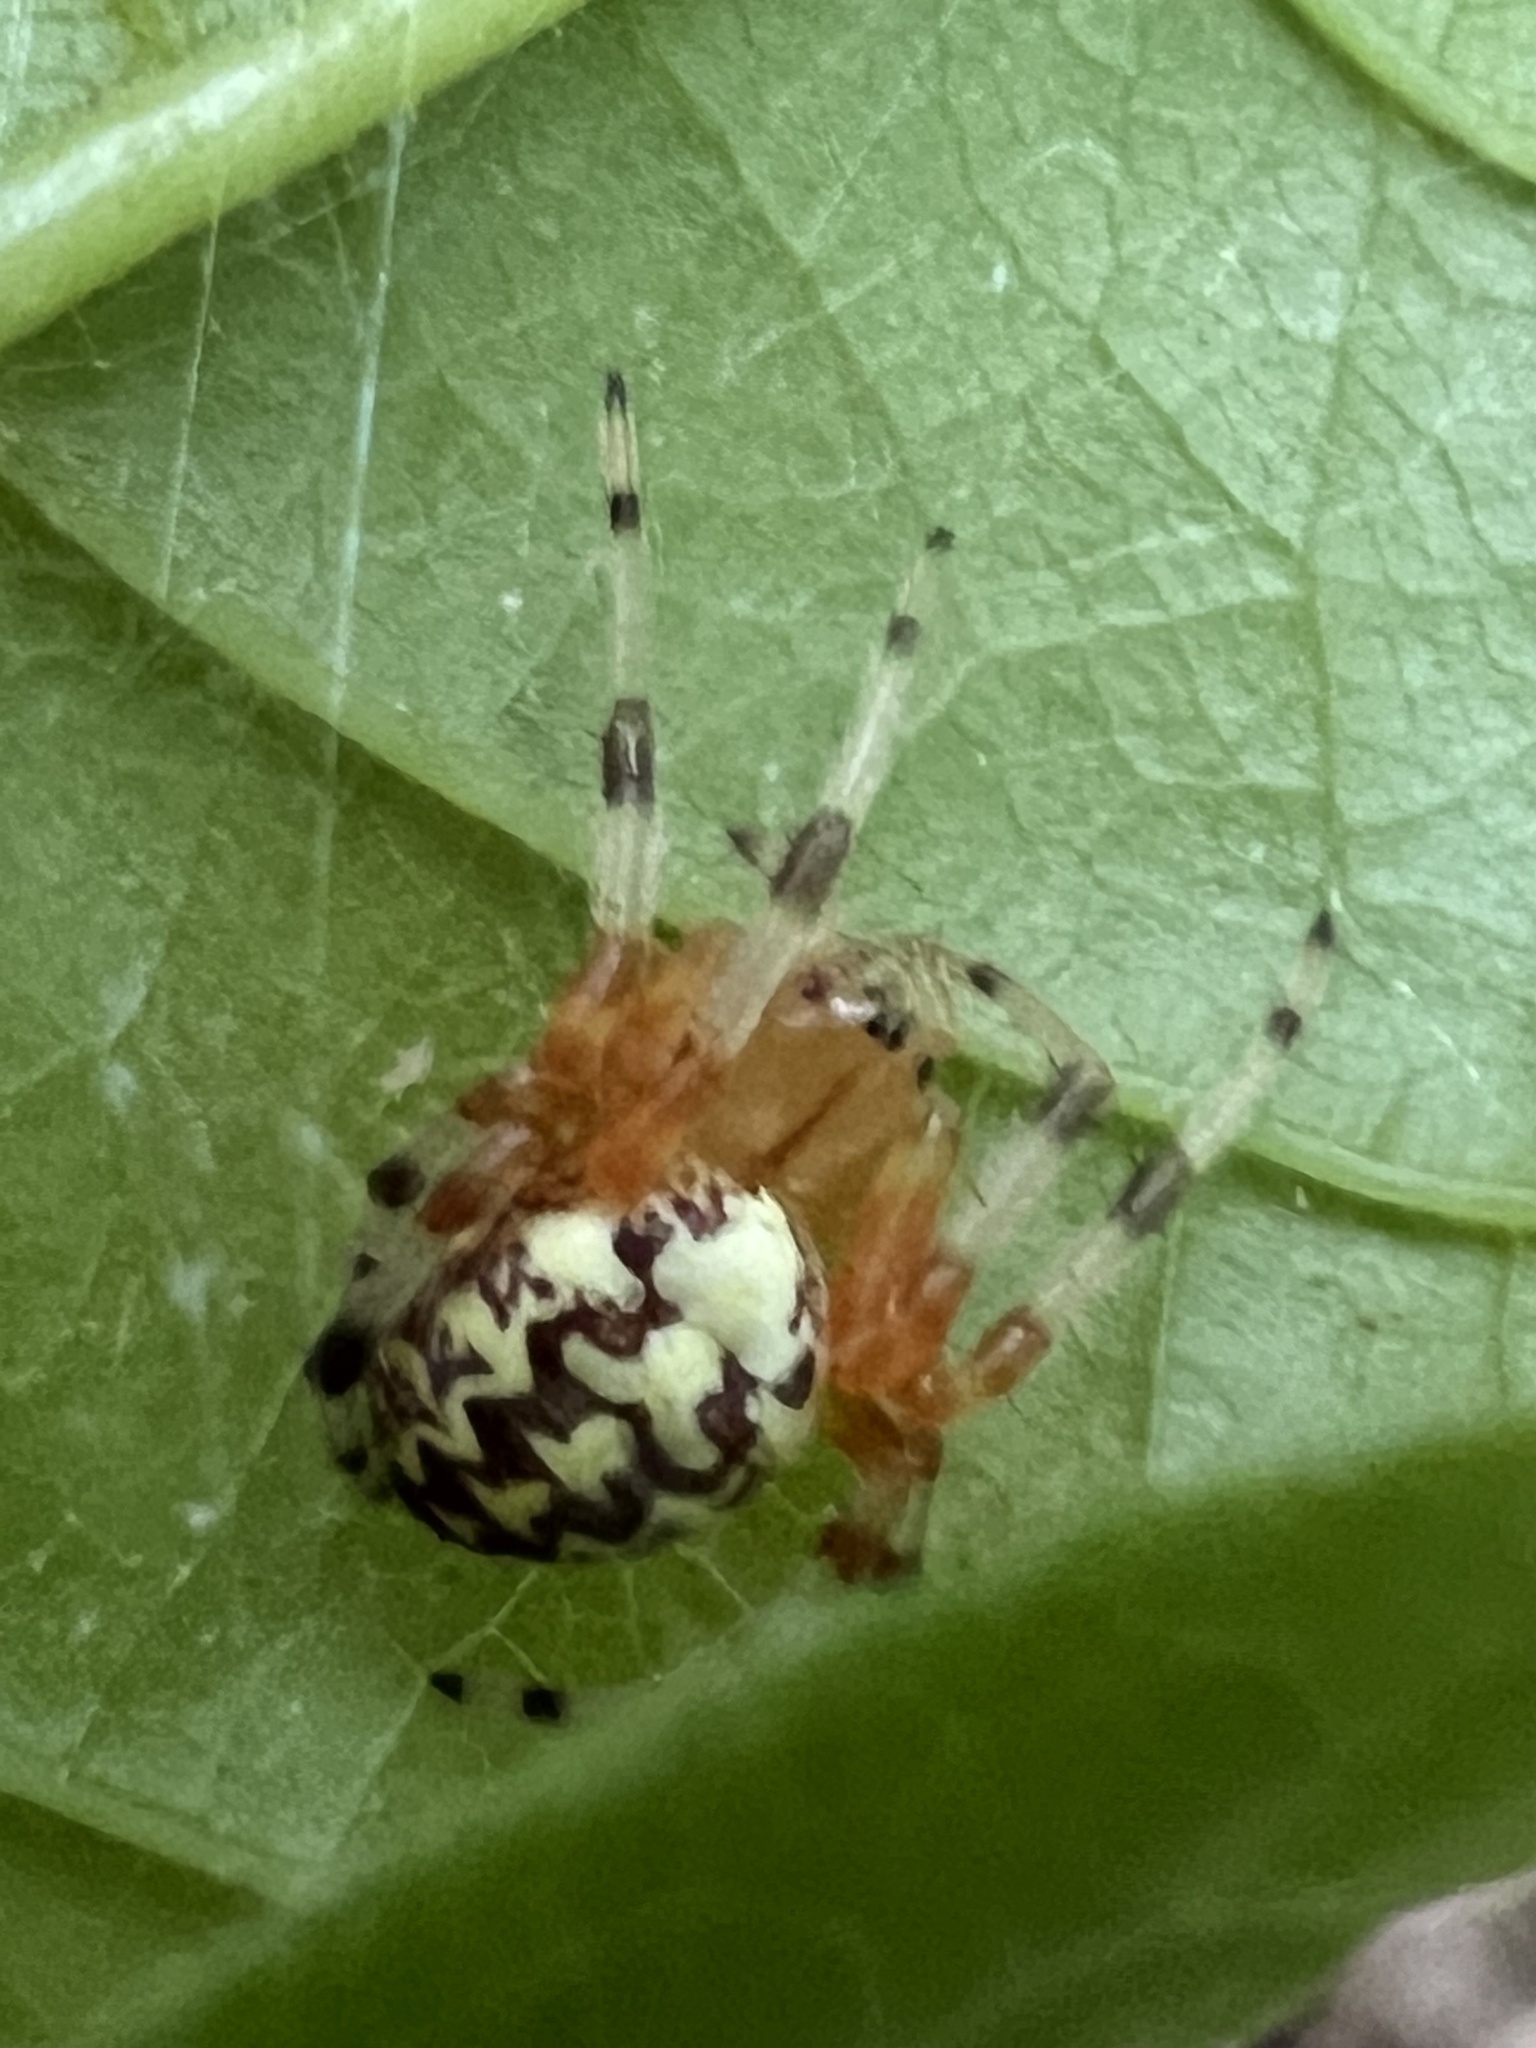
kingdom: Animalia
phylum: Arthropoda
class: Arachnida
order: Araneae
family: Araneidae
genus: Araneus
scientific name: Araneus marmoreus
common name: Marbled orbweaver
